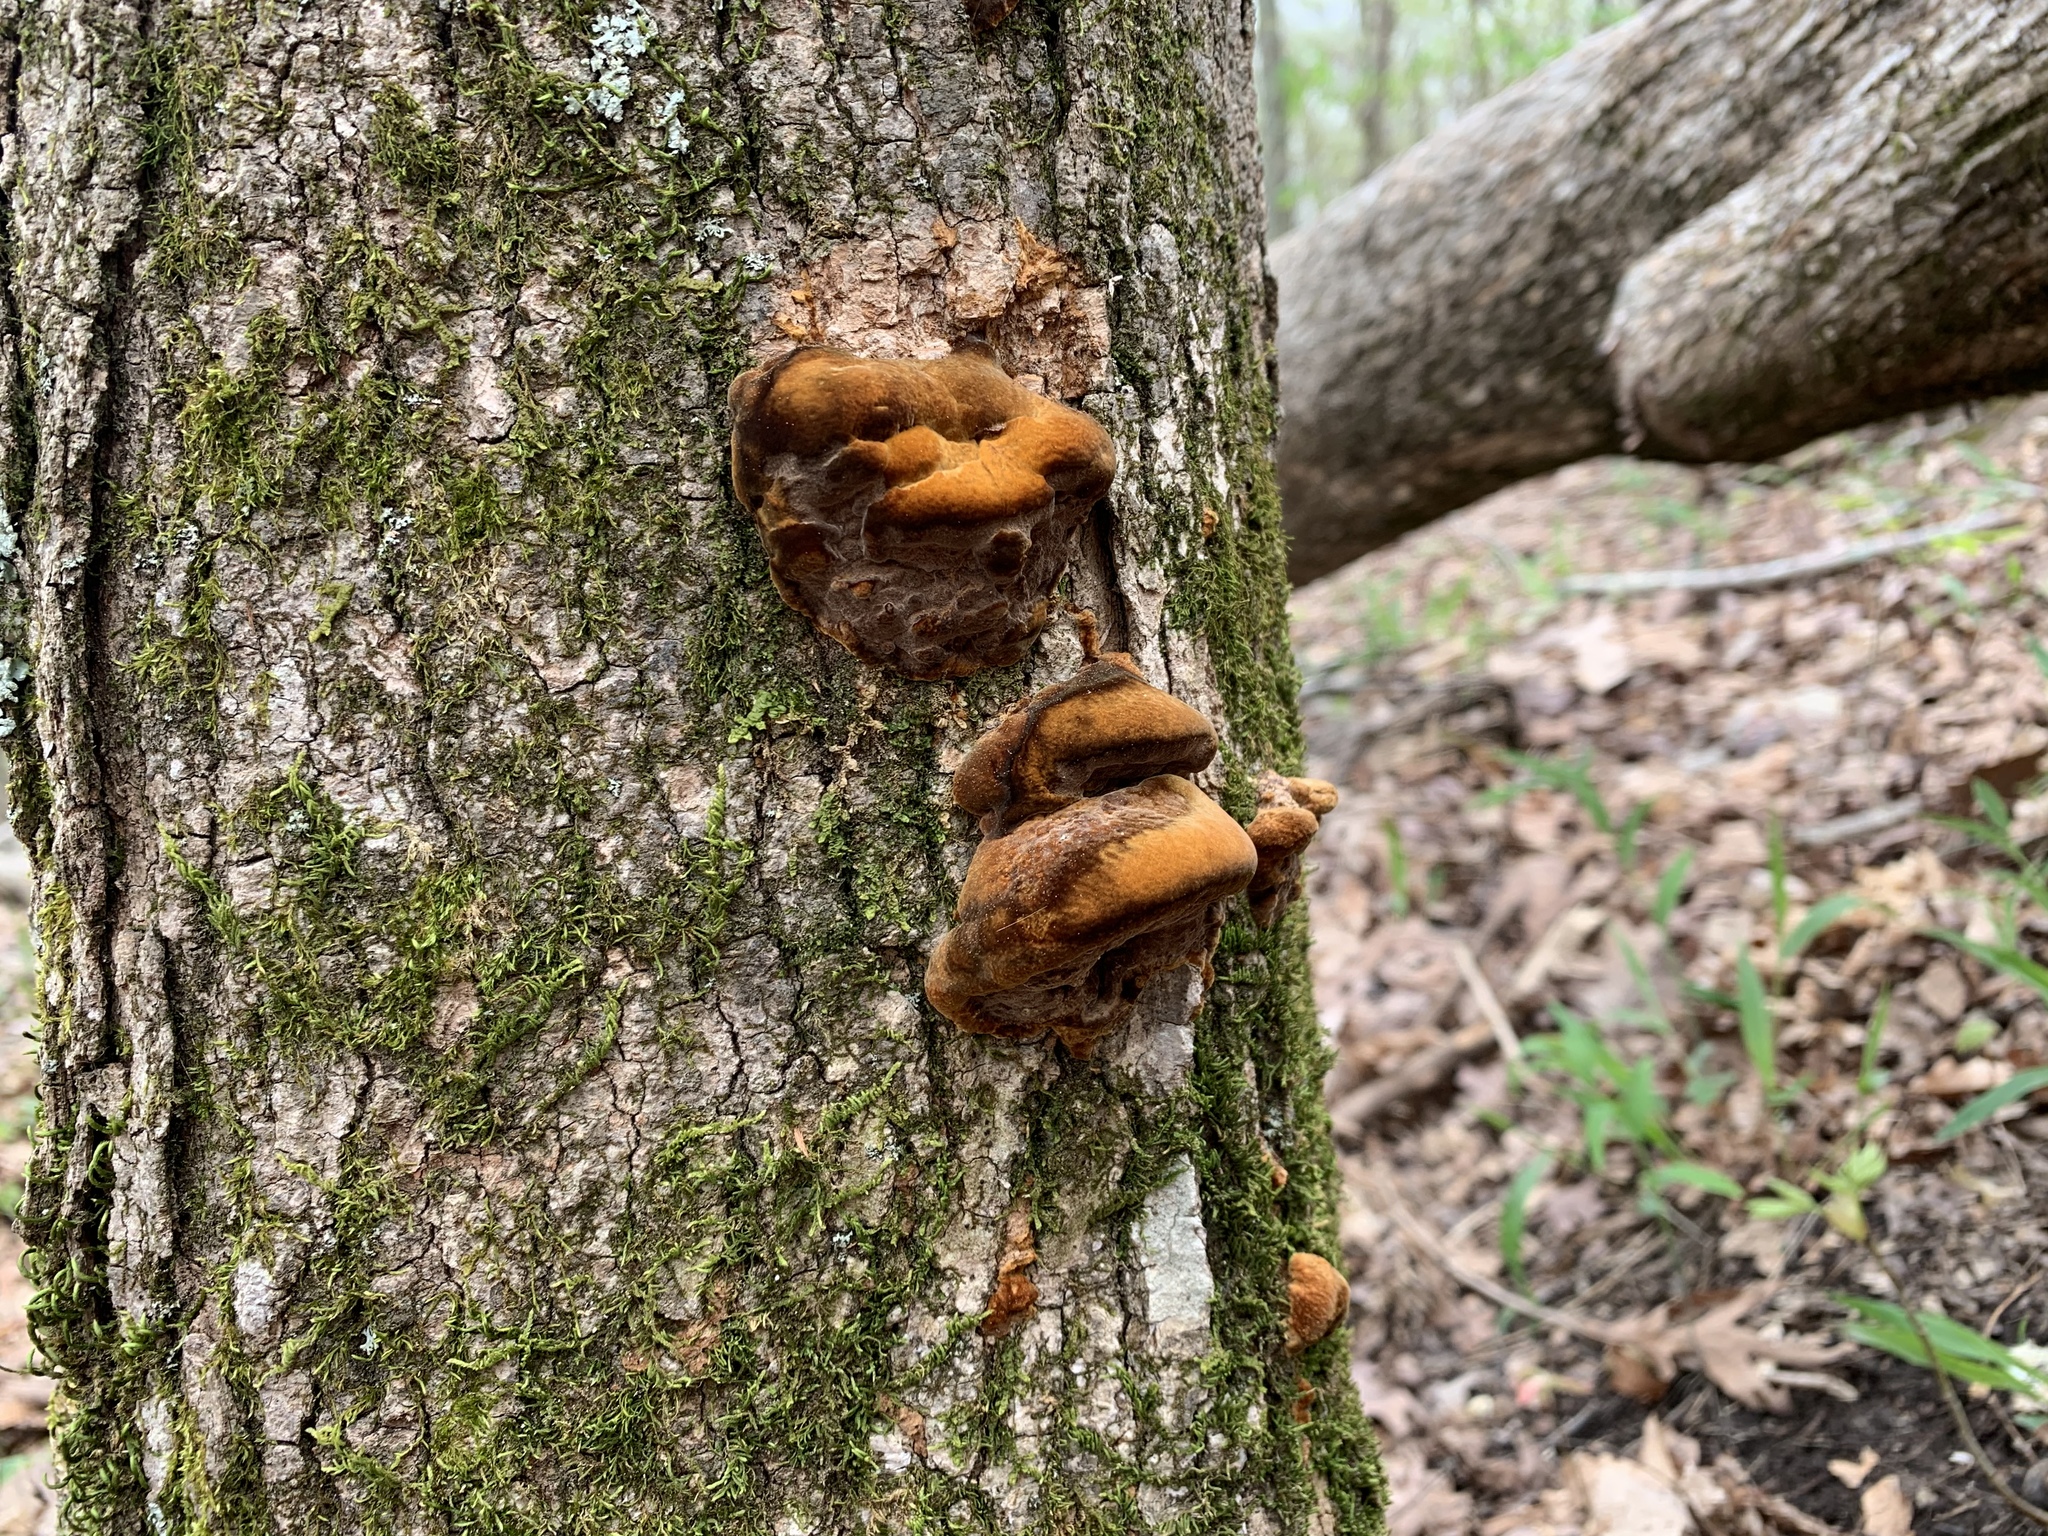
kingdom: Fungi
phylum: Basidiomycota
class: Agaricomycetes
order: Hymenochaetales
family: Hymenochaetaceae
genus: Phellinus
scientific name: Phellinus gilvus
